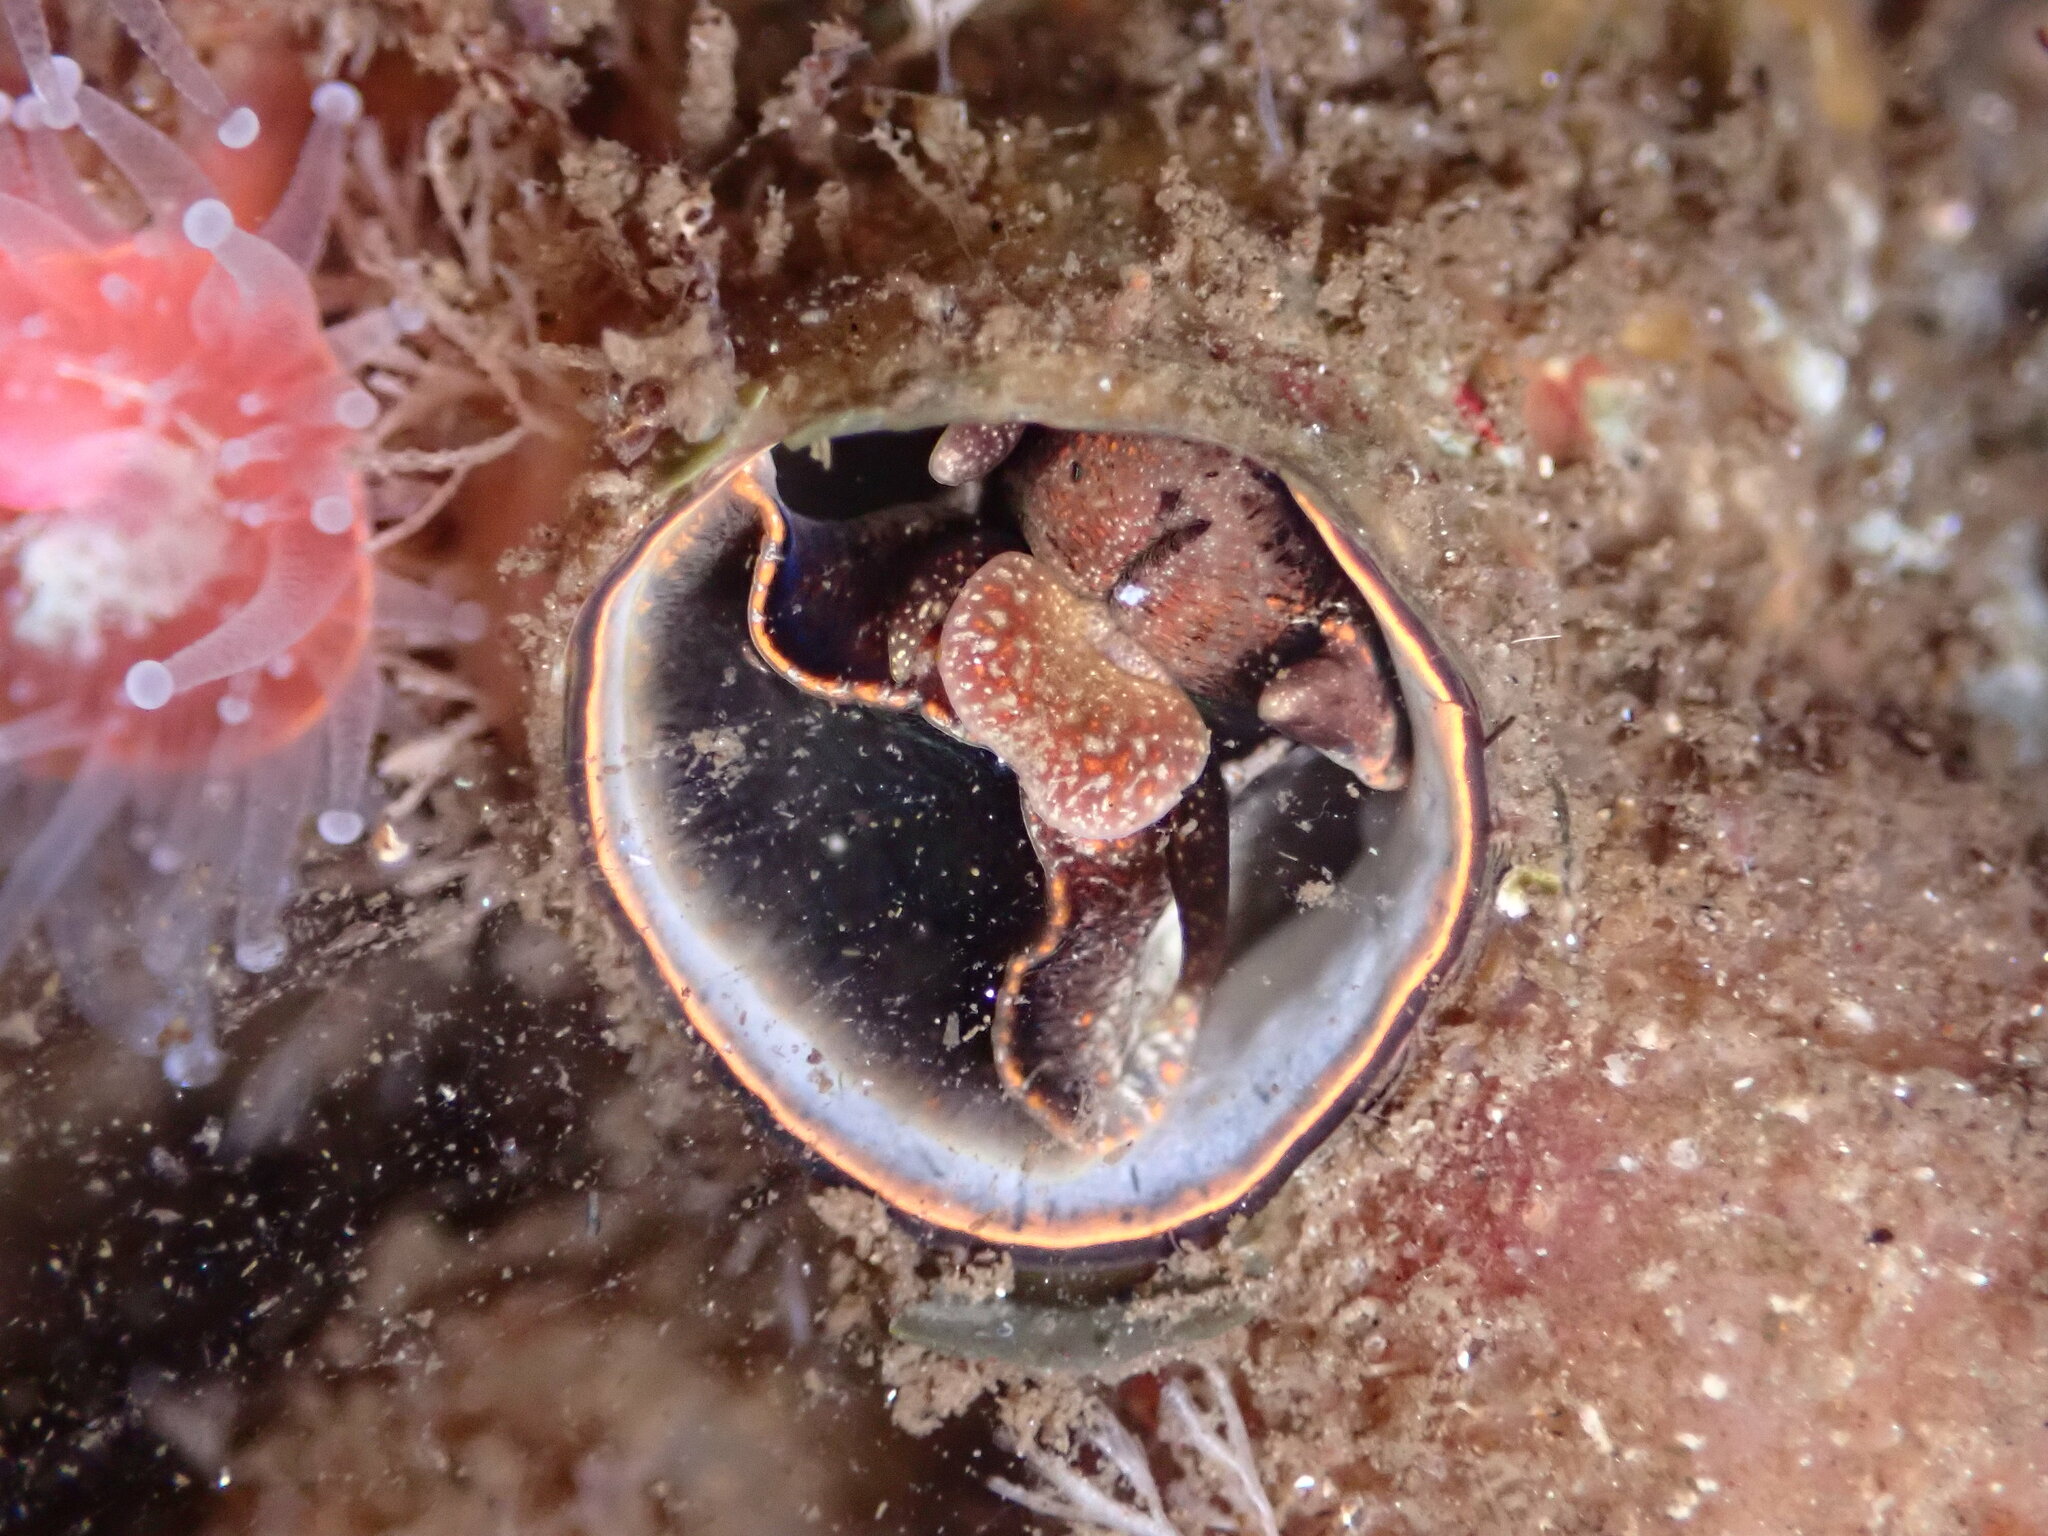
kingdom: Animalia
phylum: Mollusca
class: Gastropoda
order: Littorinimorpha
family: Vermetidae
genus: Thylacodes
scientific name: Thylacodes squamigerus
